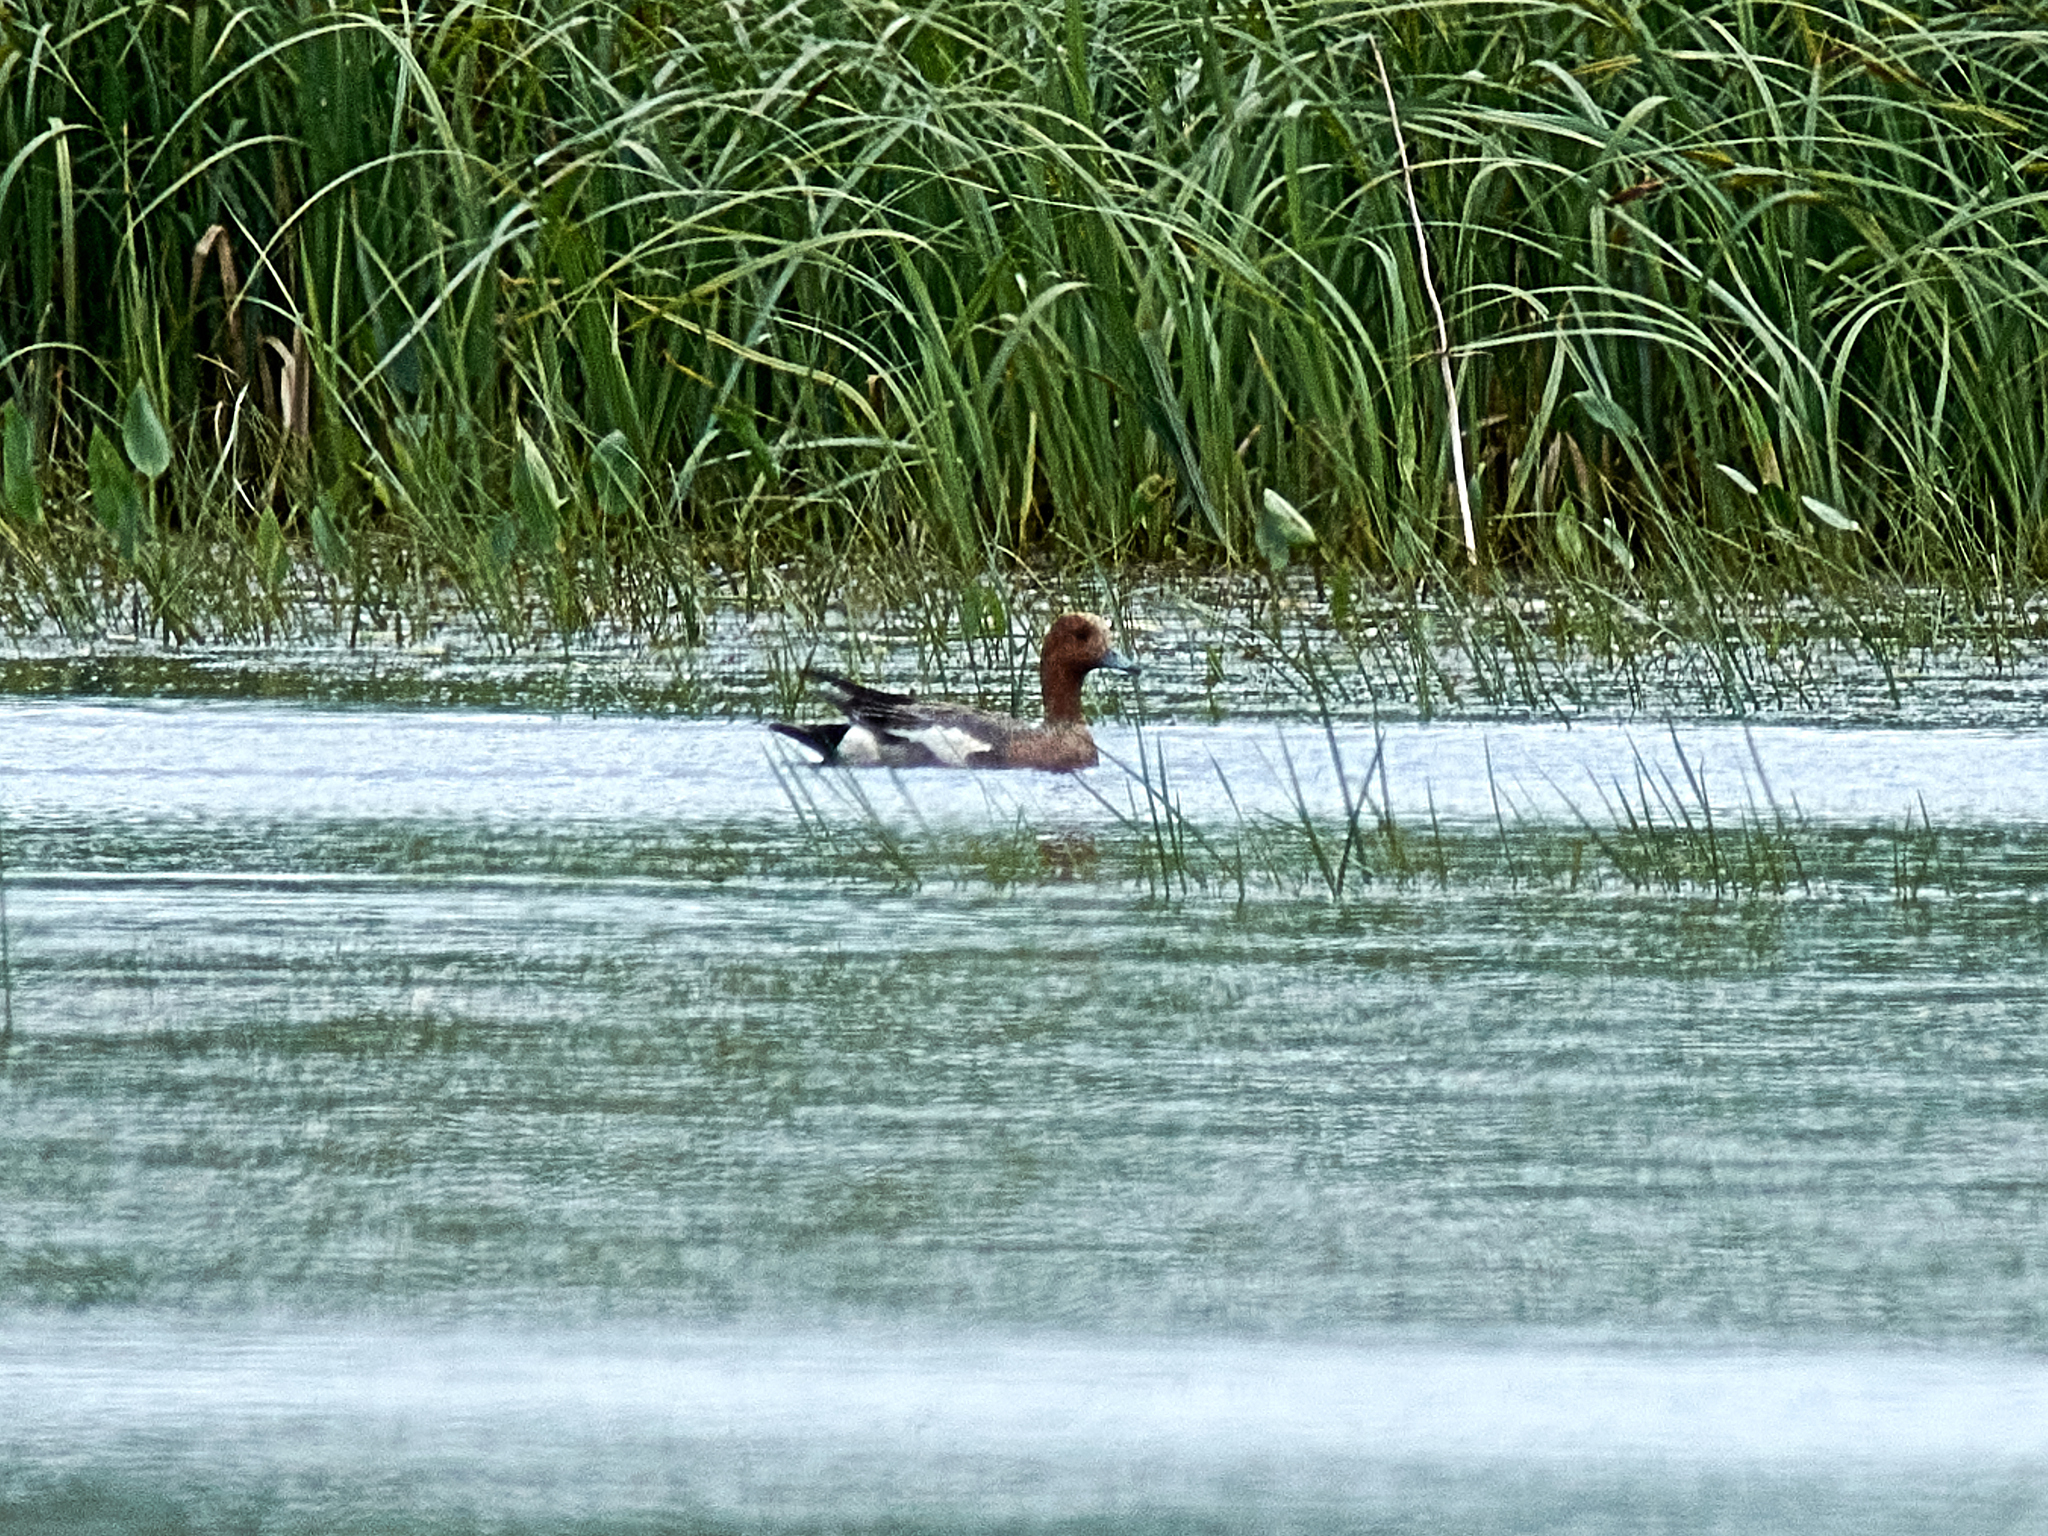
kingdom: Animalia
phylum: Chordata
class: Aves
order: Anseriformes
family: Anatidae
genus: Mareca
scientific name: Mareca penelope
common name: Eurasian wigeon
